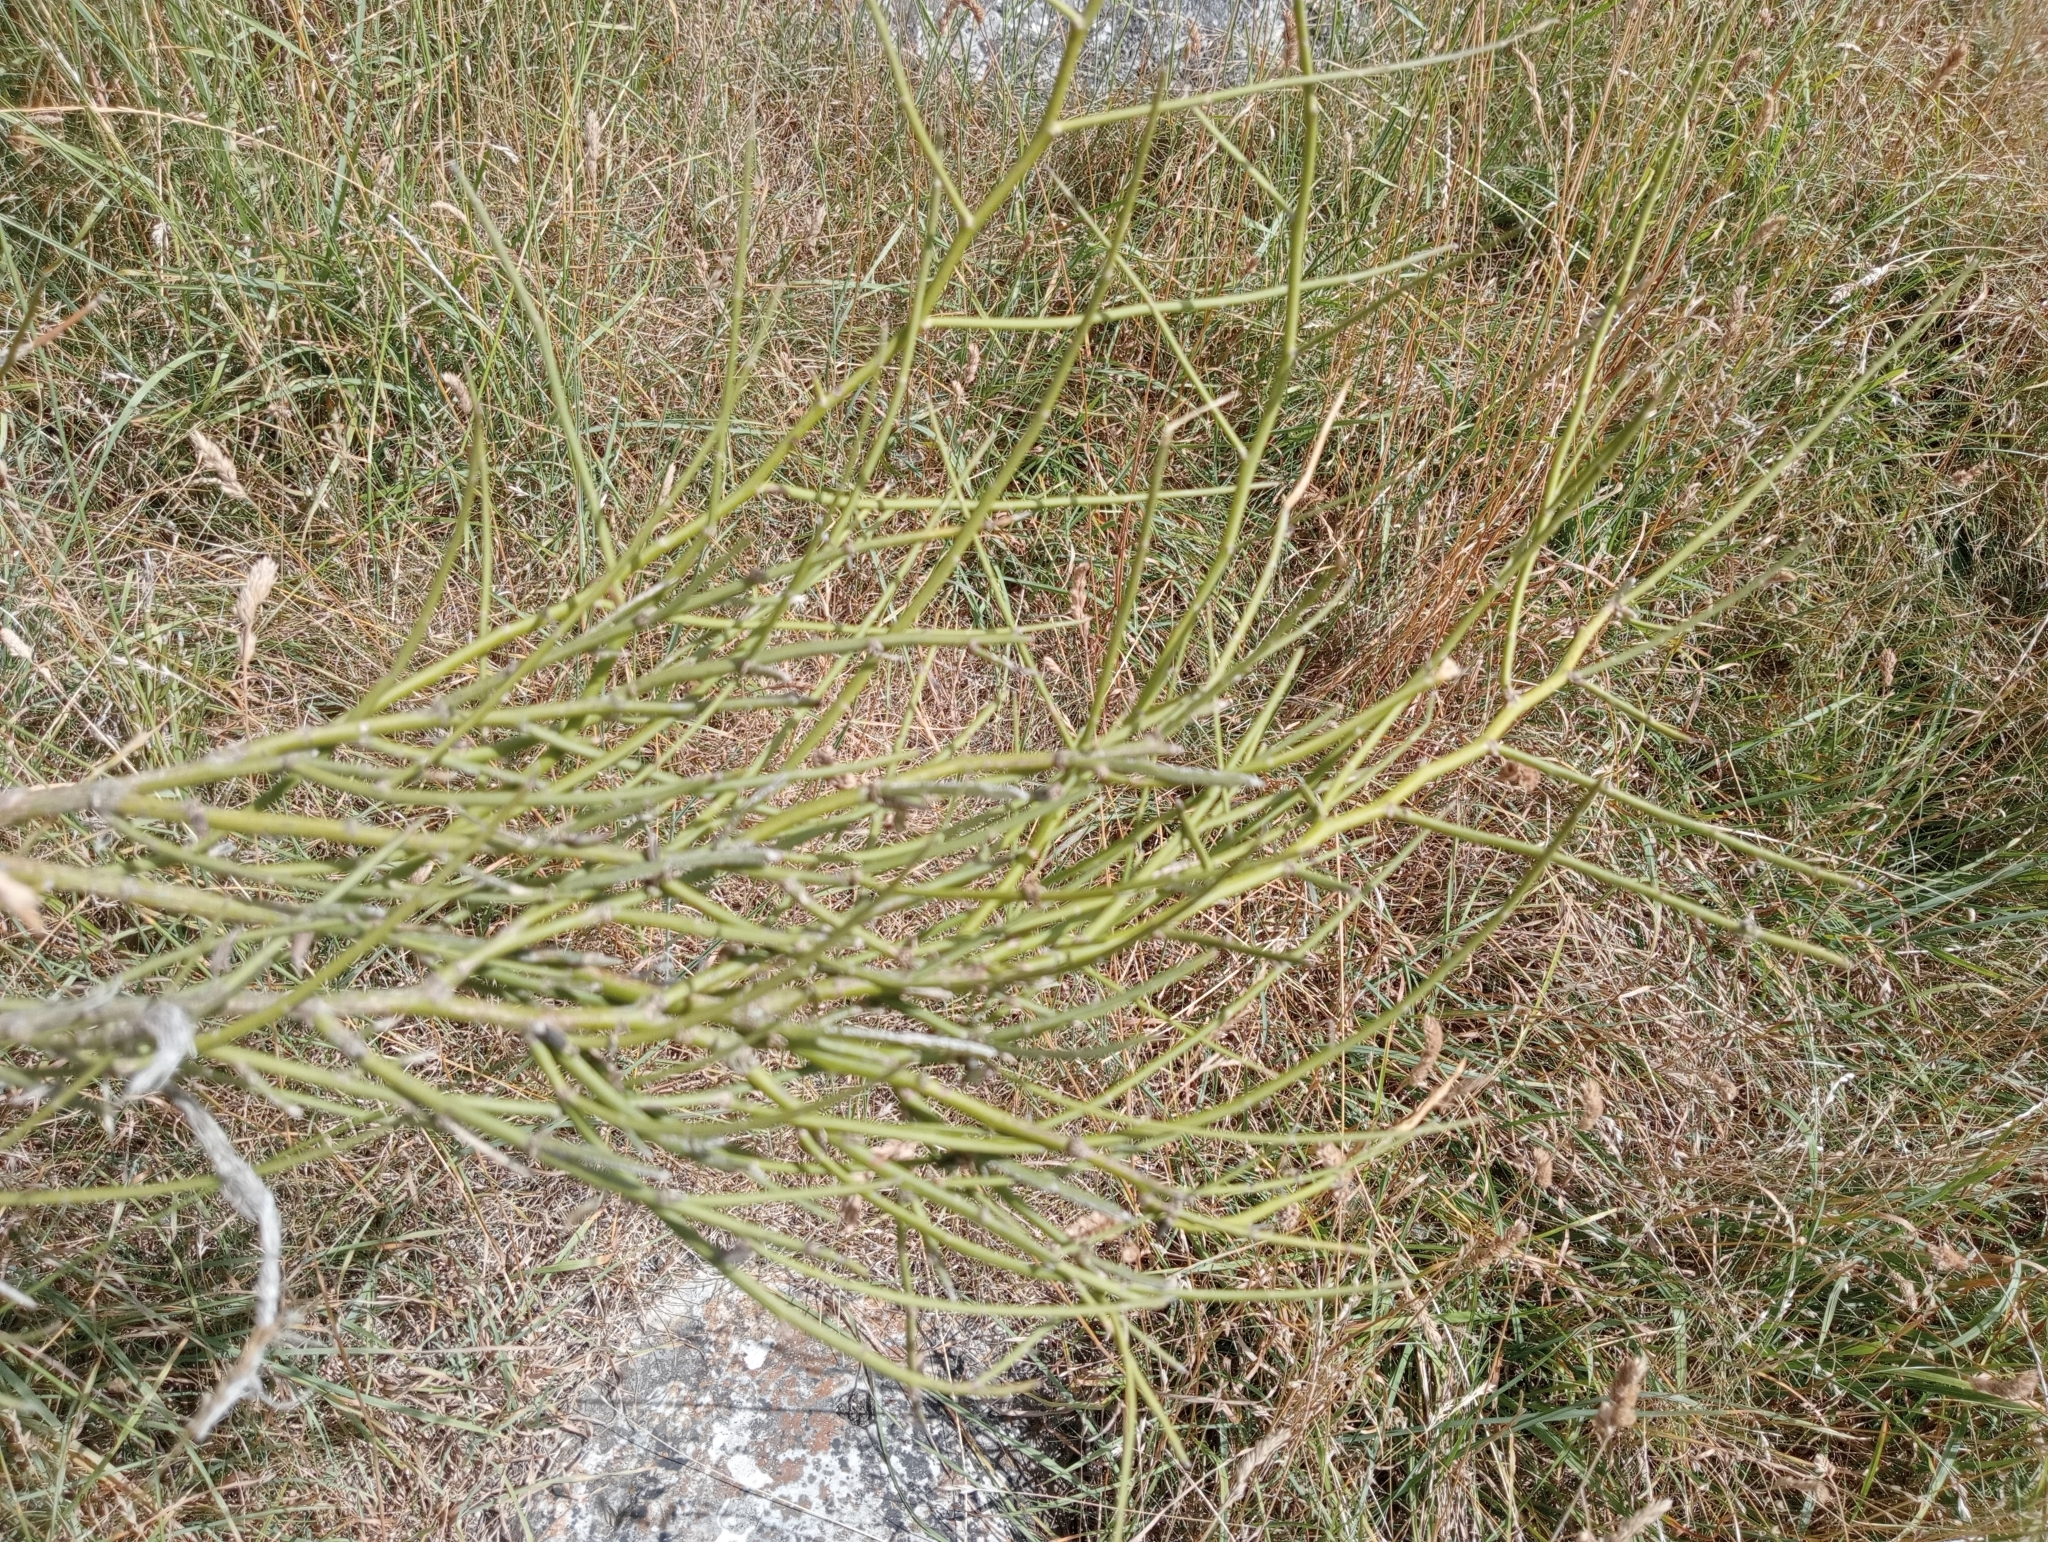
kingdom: Plantae
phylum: Tracheophyta
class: Magnoliopsida
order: Fabales
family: Fabaceae
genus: Carmichaelia
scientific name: Carmichaelia petriei
